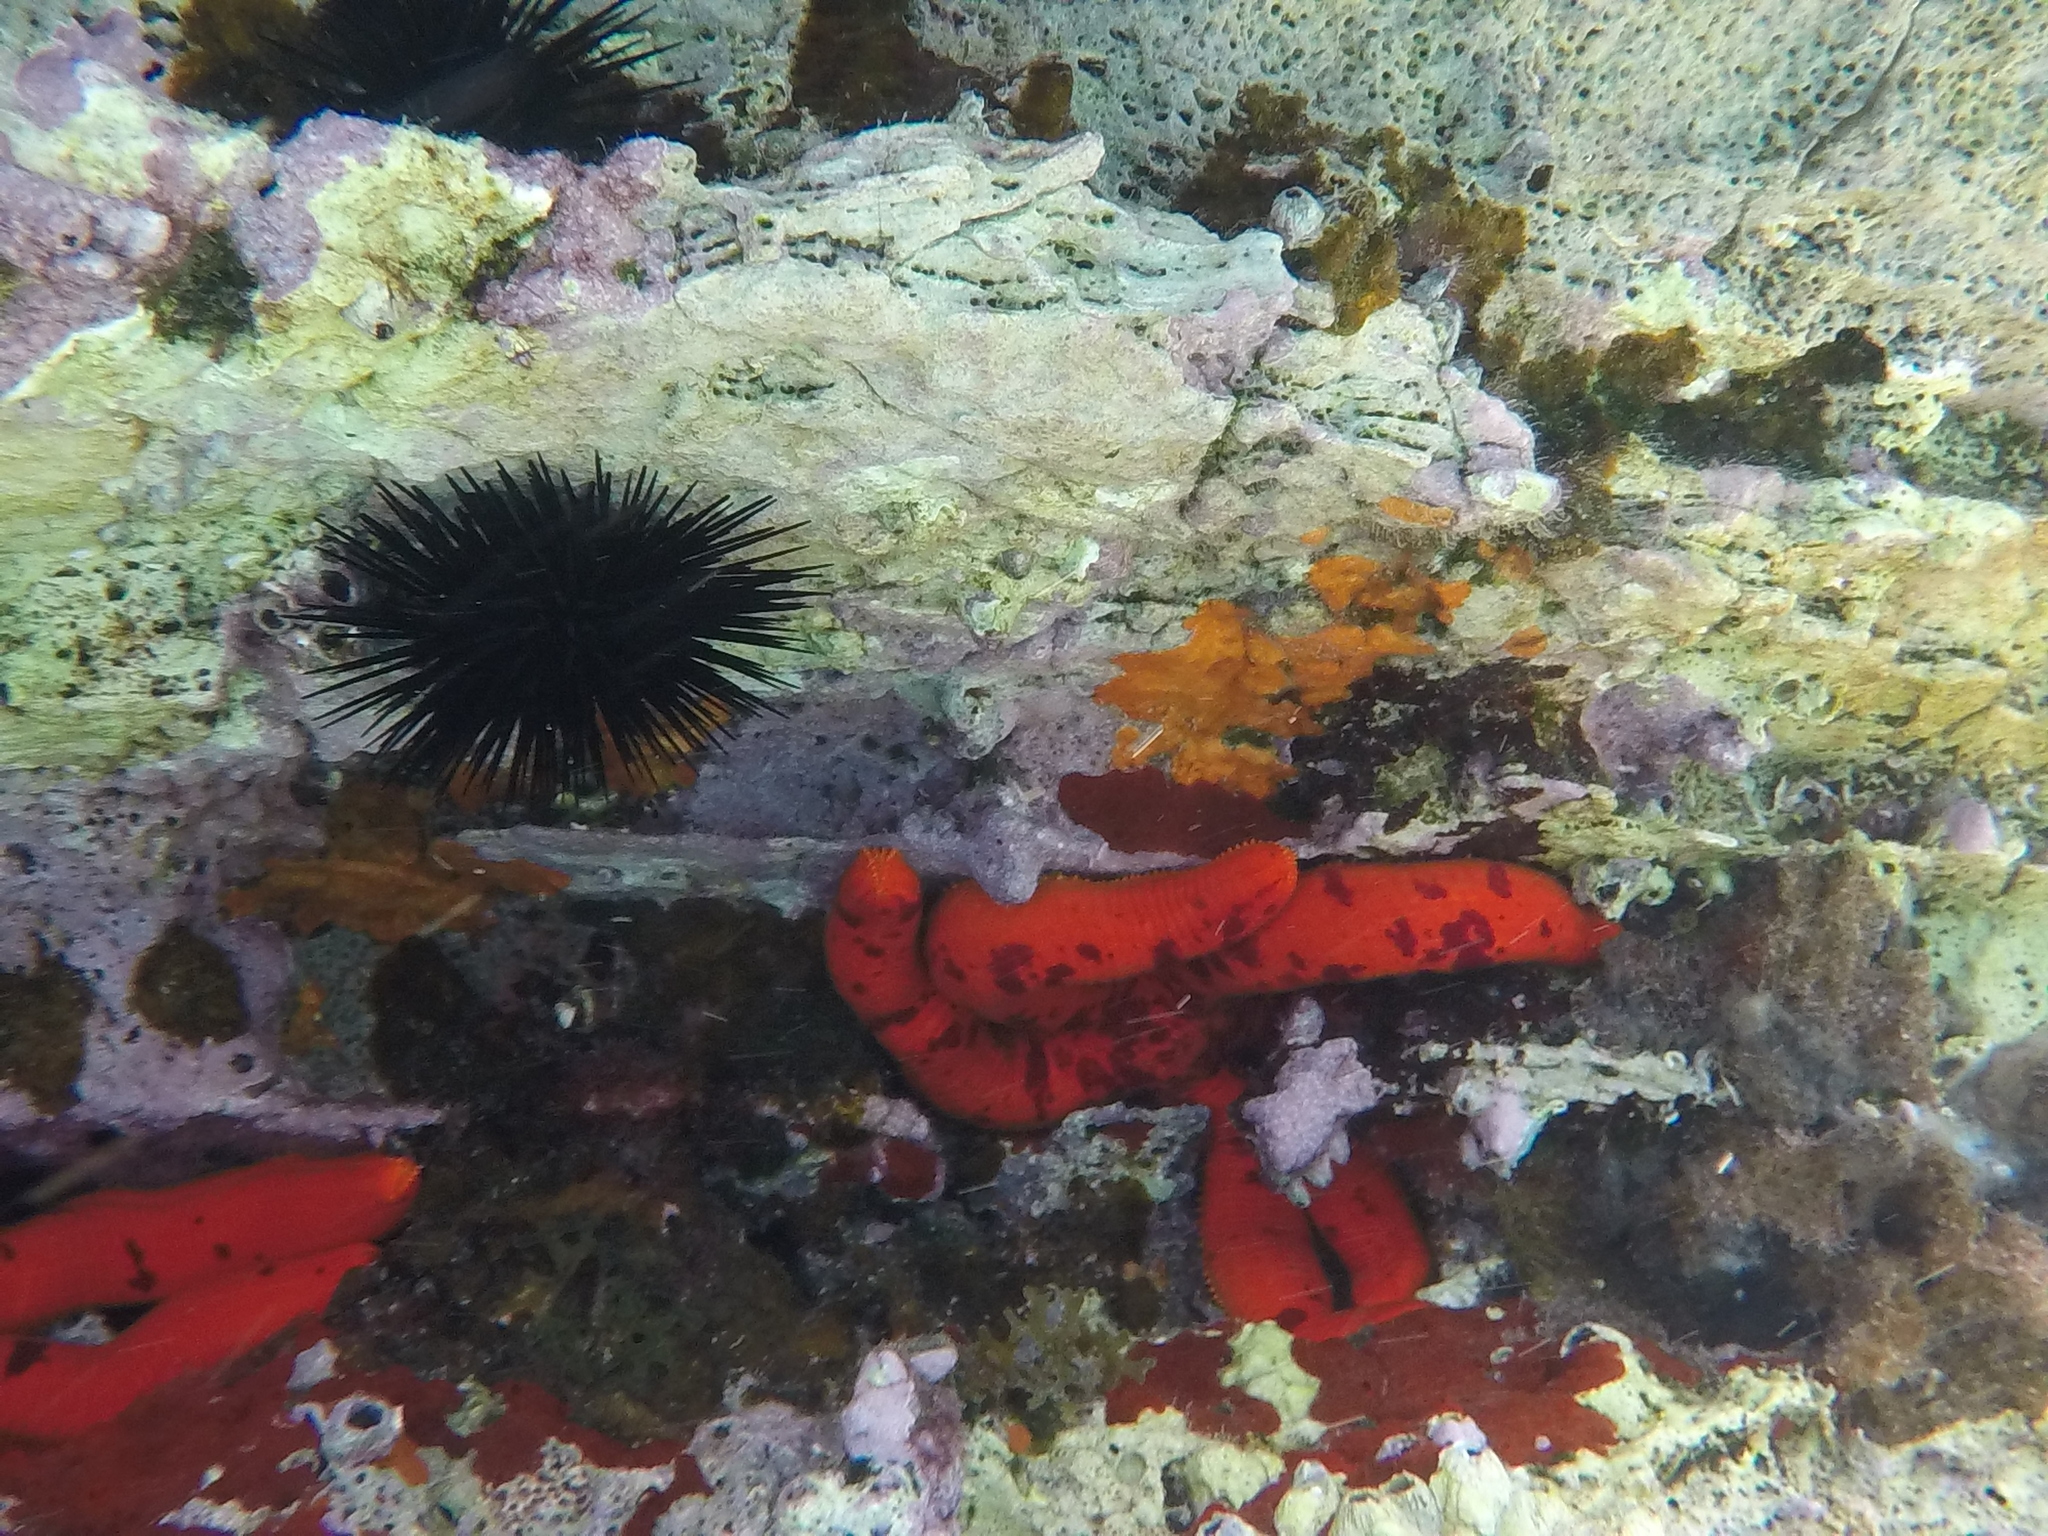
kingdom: Animalia
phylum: Echinodermata
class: Asteroidea
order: Valvatida
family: Ophidiasteridae
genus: Ophidiaster
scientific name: Ophidiaster ophidianus
